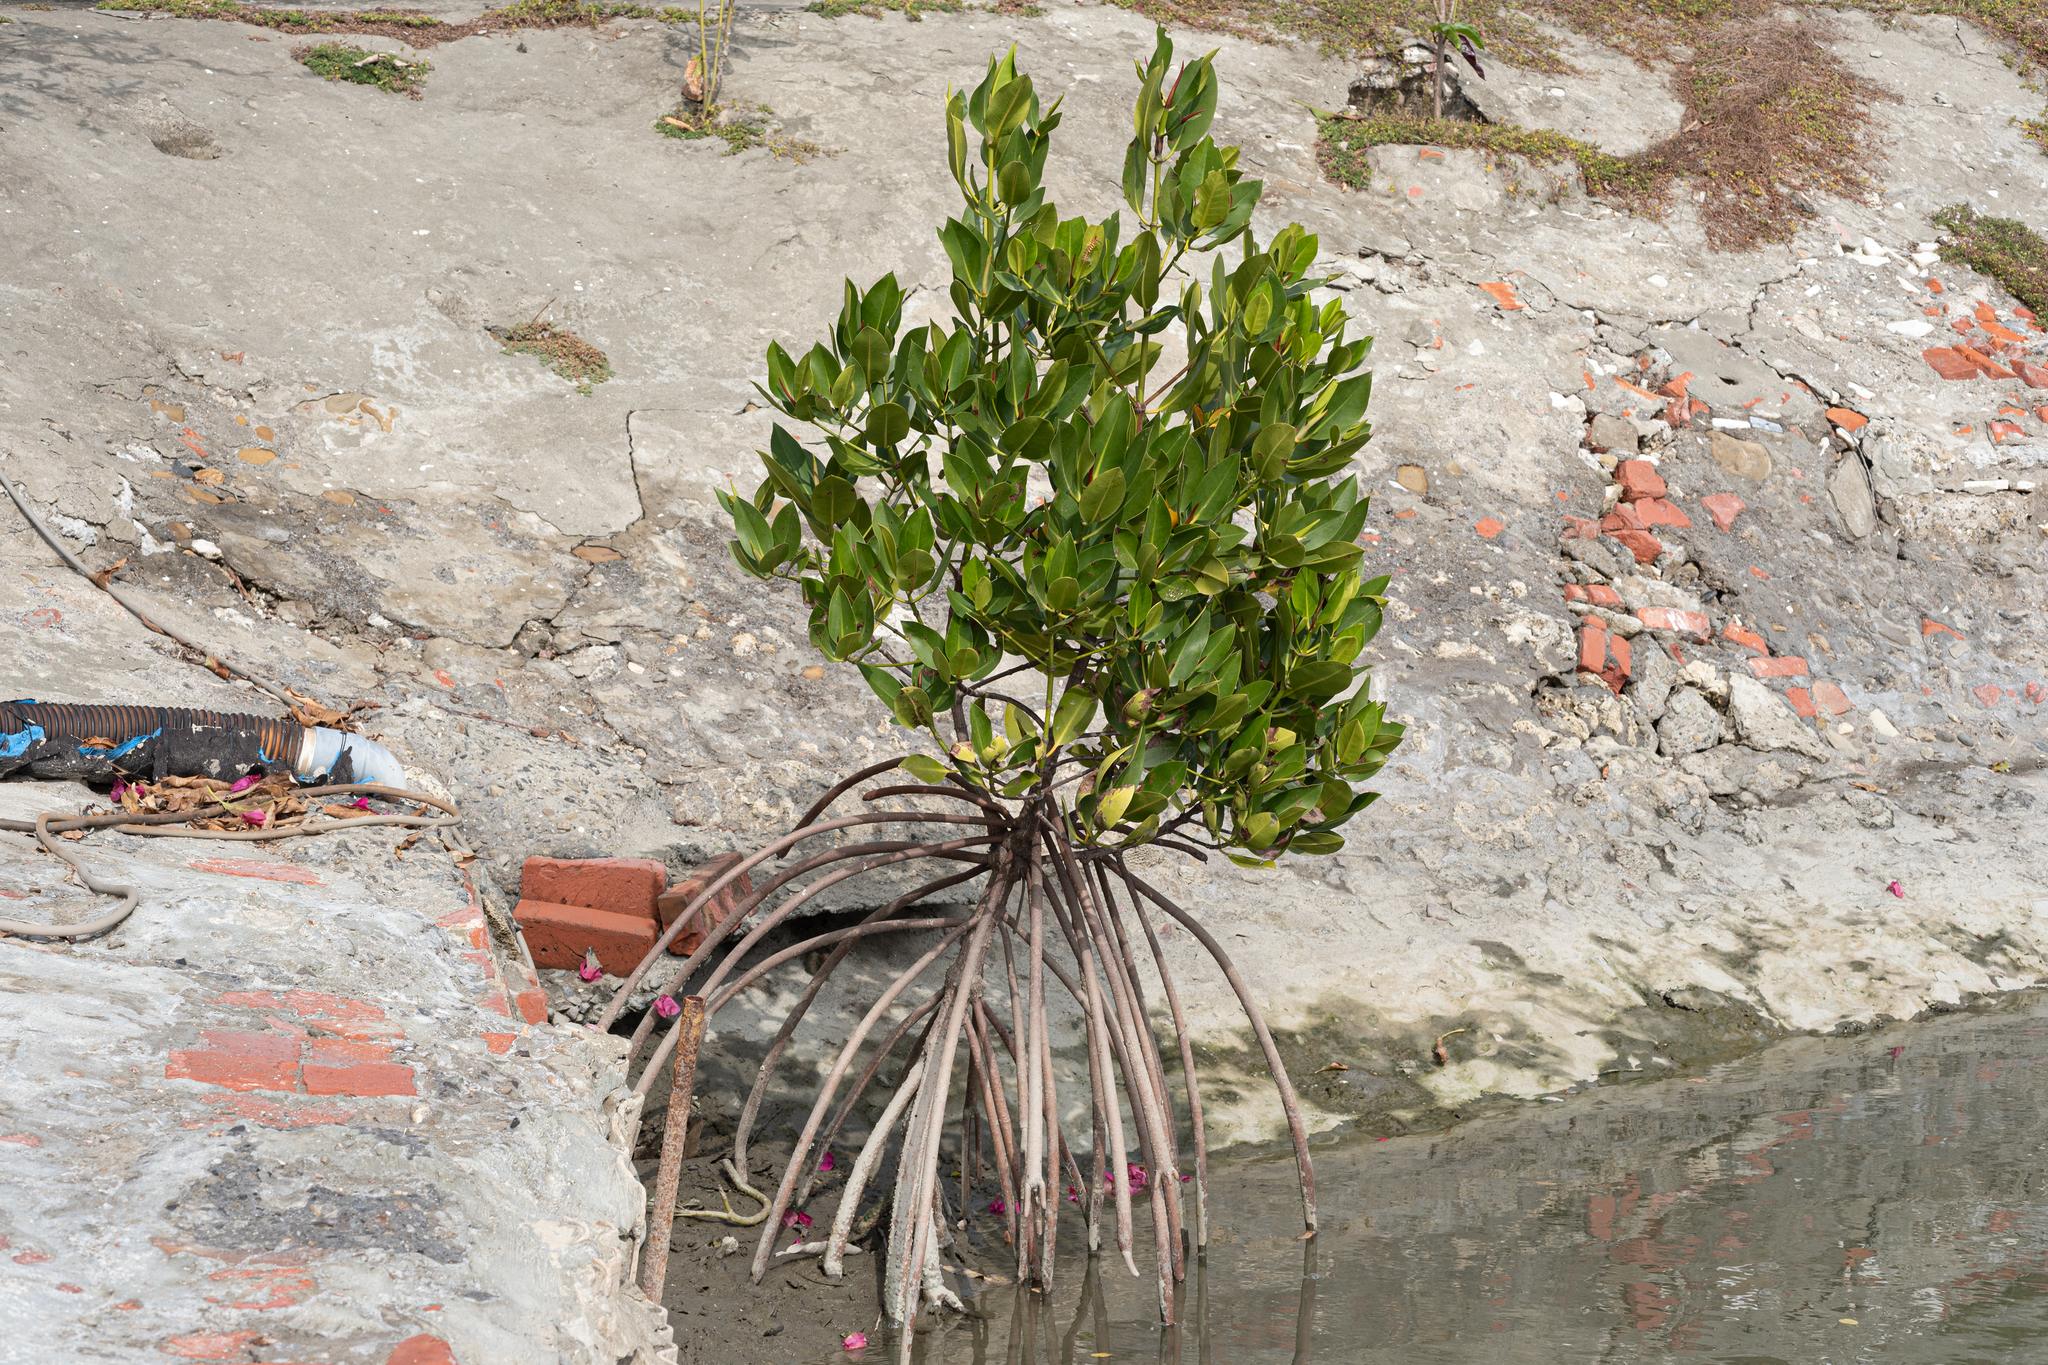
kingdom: Plantae
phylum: Tracheophyta
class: Magnoliopsida
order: Malpighiales
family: Rhizophoraceae
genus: Rhizophora
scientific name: Rhizophora stylosa
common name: Red mangrove
